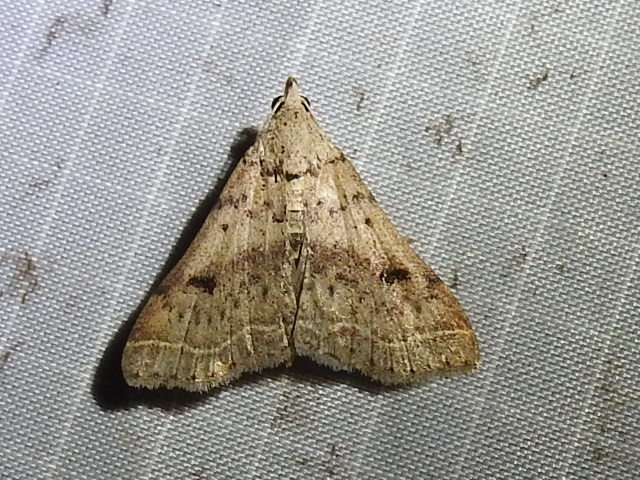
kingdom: Animalia
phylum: Arthropoda
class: Insecta
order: Lepidoptera
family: Erebidae
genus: Bleptina
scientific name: Bleptina caradrinalis
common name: Bent-winged owlet
